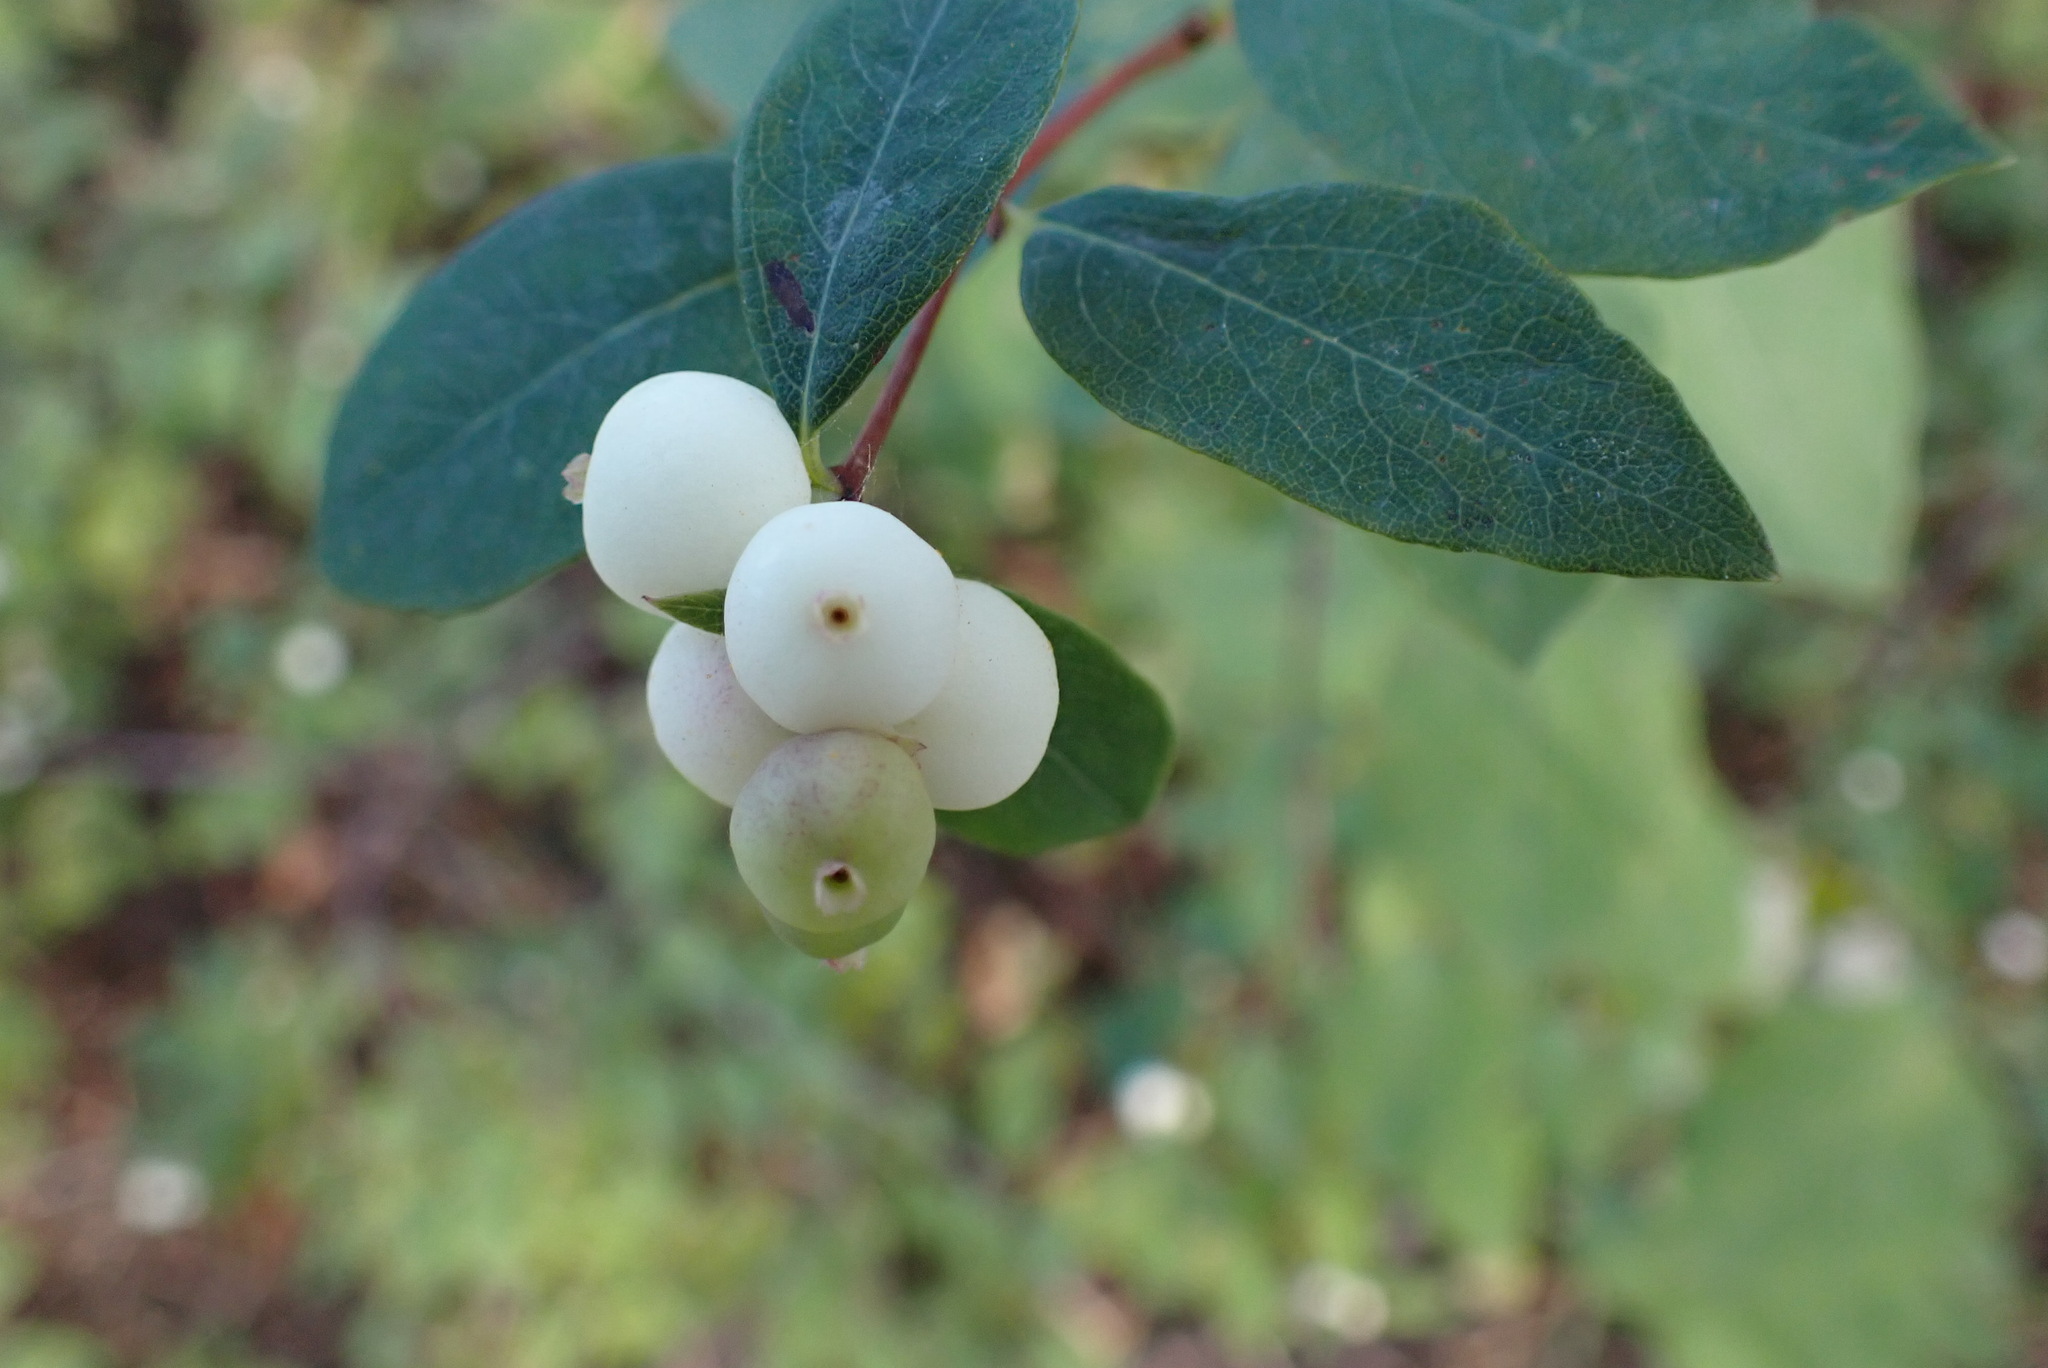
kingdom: Plantae
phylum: Tracheophyta
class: Magnoliopsida
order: Dipsacales
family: Caprifoliaceae
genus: Symphoricarpos
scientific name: Symphoricarpos albus
